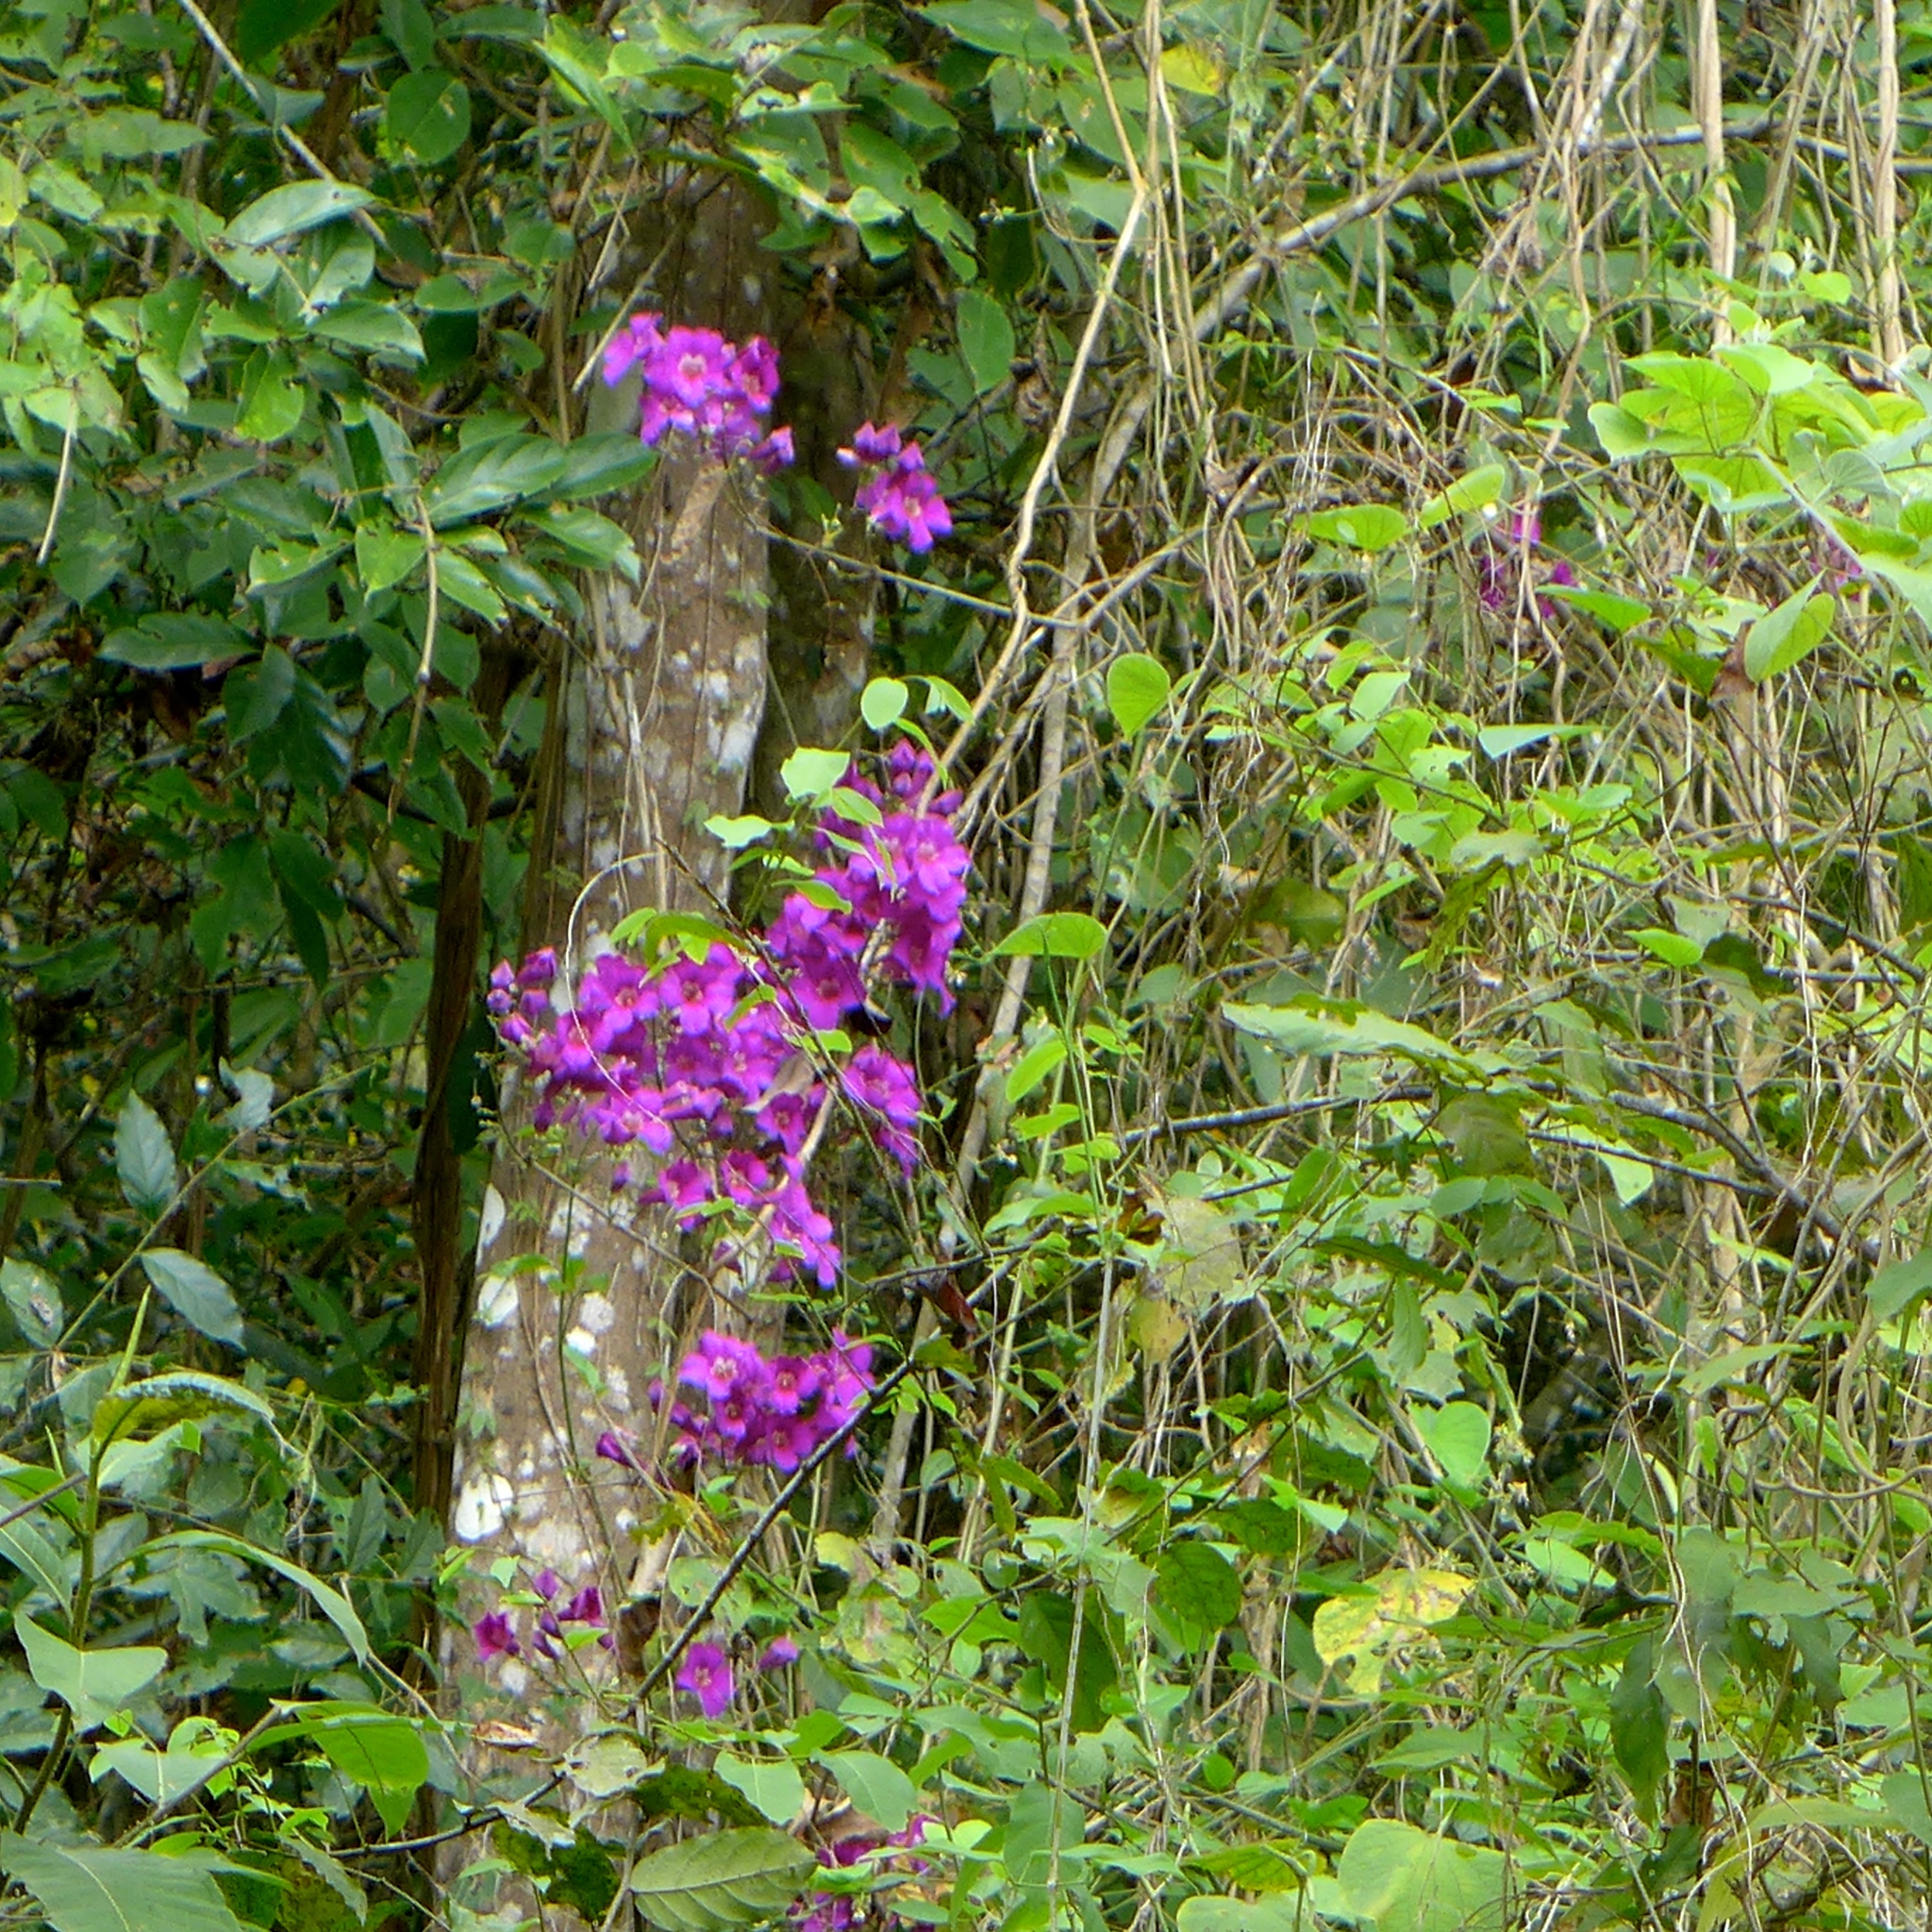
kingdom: Plantae
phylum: Tracheophyta
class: Magnoliopsida
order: Lamiales
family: Bignoniaceae
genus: Bignonia
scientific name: Bignonia magnifica
